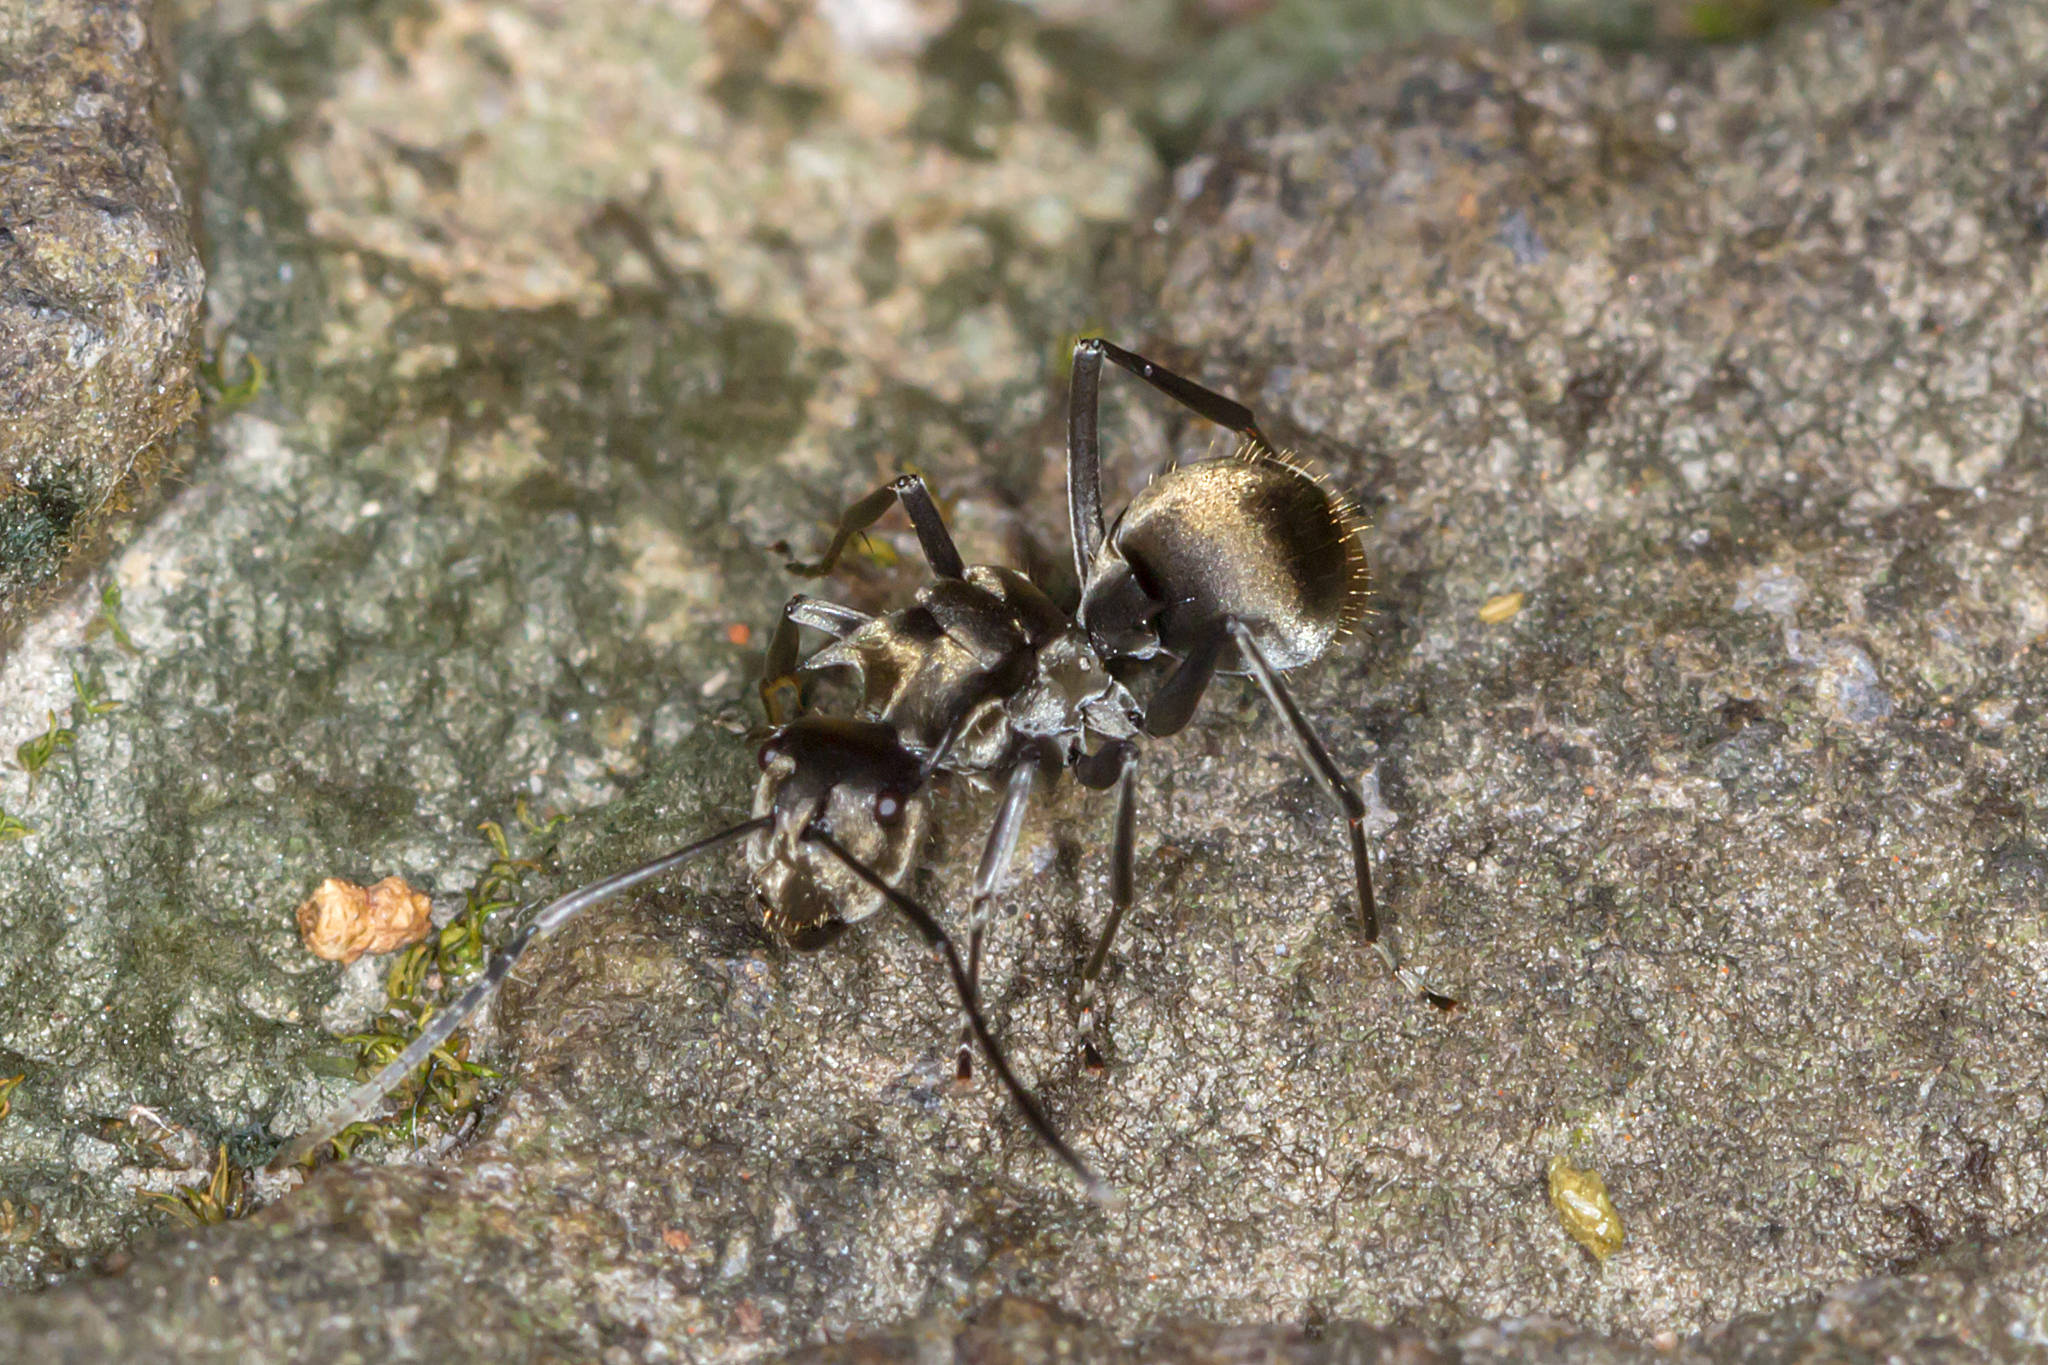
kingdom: Animalia
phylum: Arthropoda
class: Insecta
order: Hymenoptera
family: Formicidae
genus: Polyrhachis
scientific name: Polyrhachis foreli
